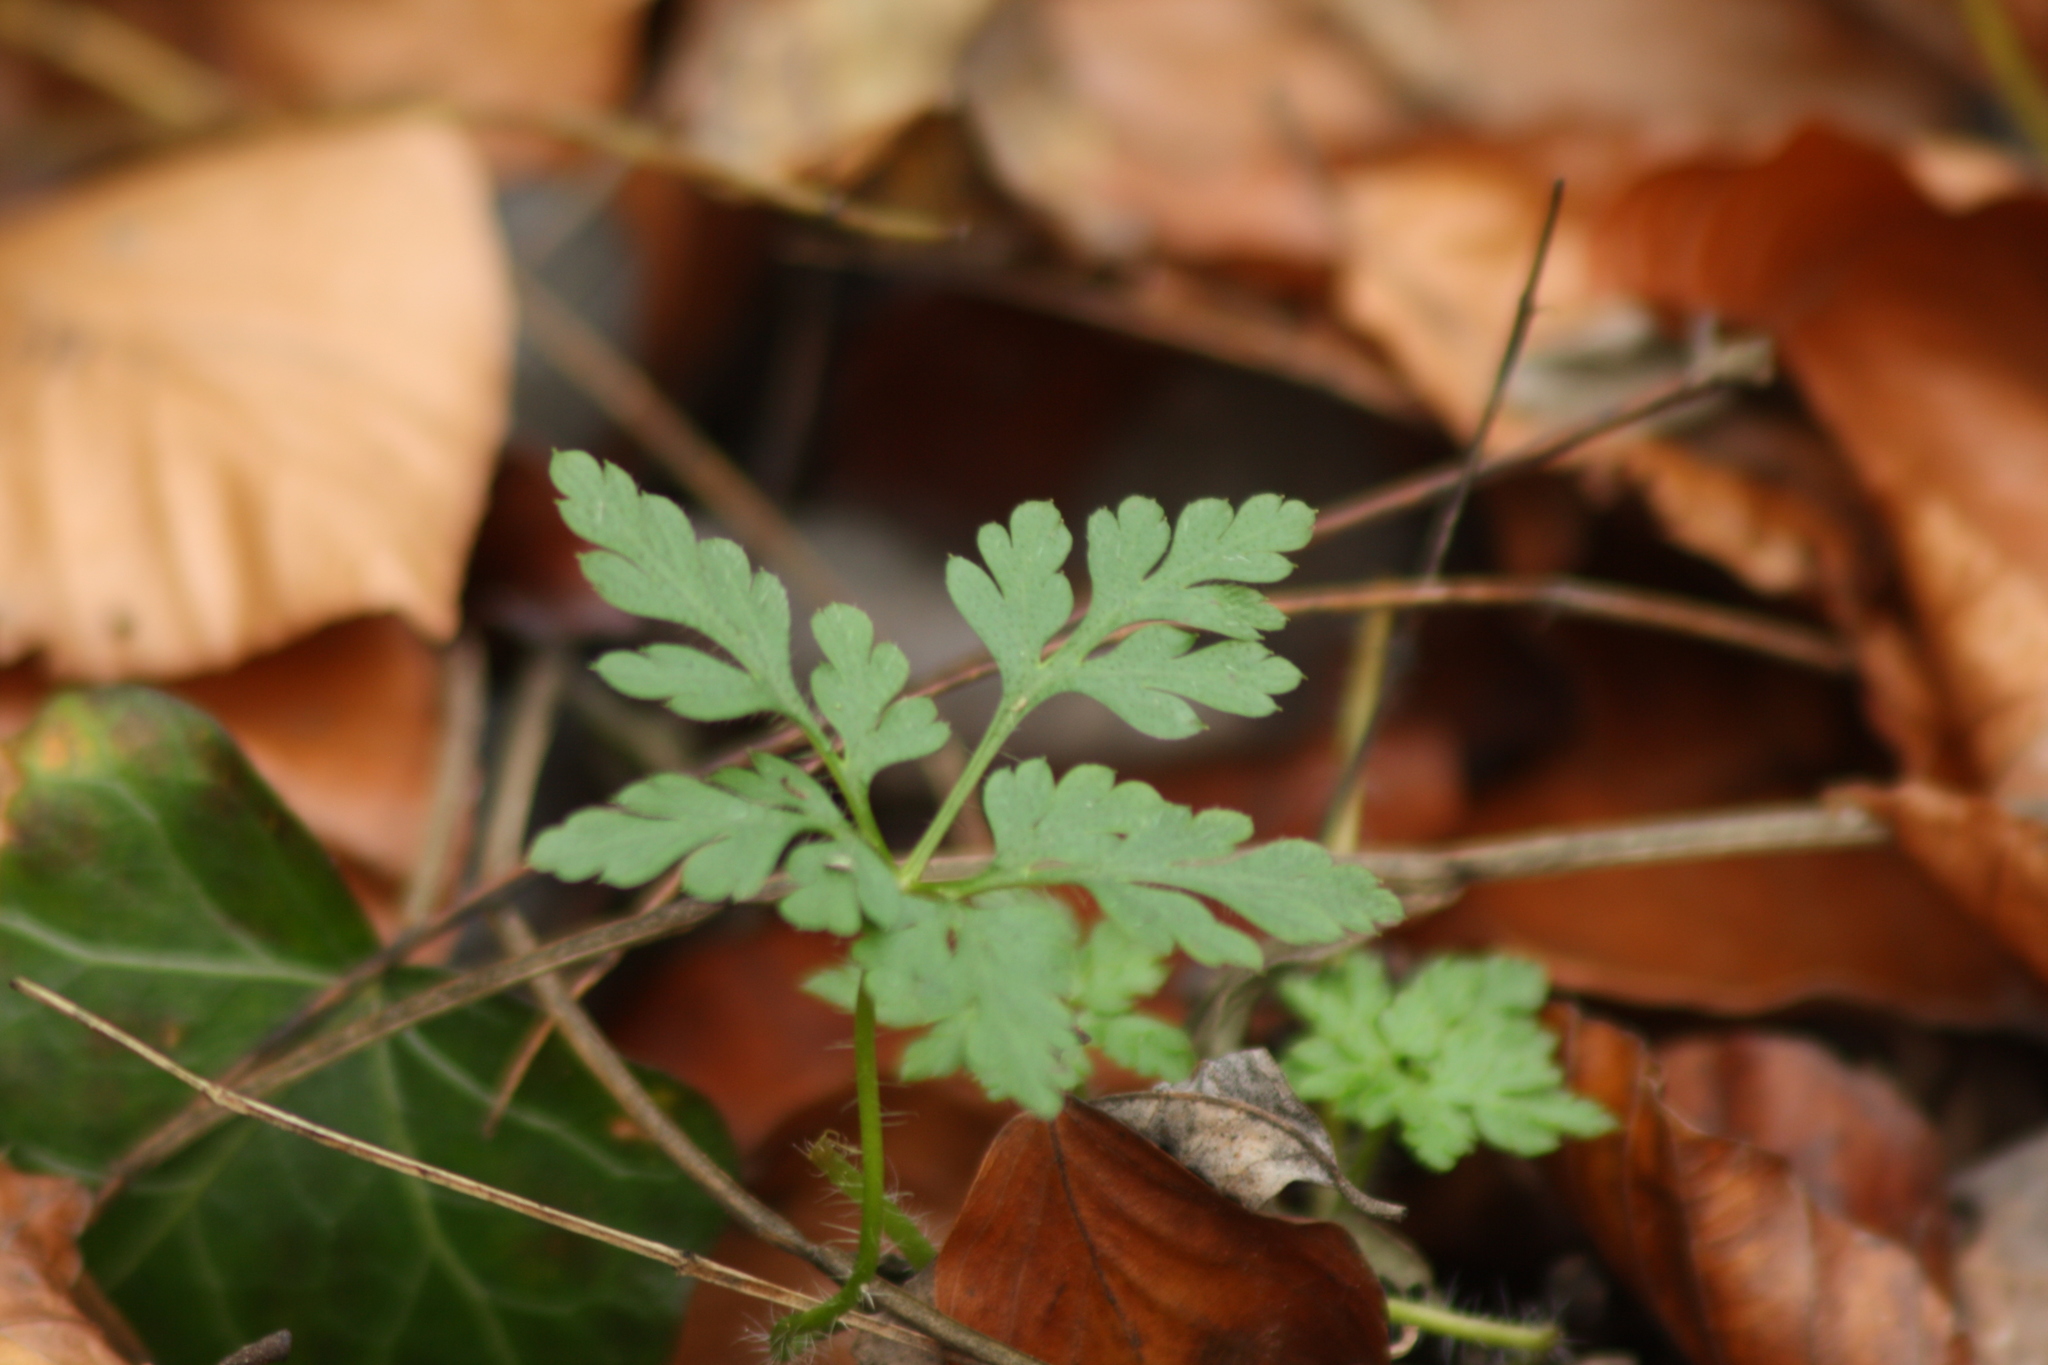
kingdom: Plantae
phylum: Tracheophyta
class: Magnoliopsida
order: Geraniales
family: Geraniaceae
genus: Geranium
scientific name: Geranium robertianum
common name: Herb-robert
